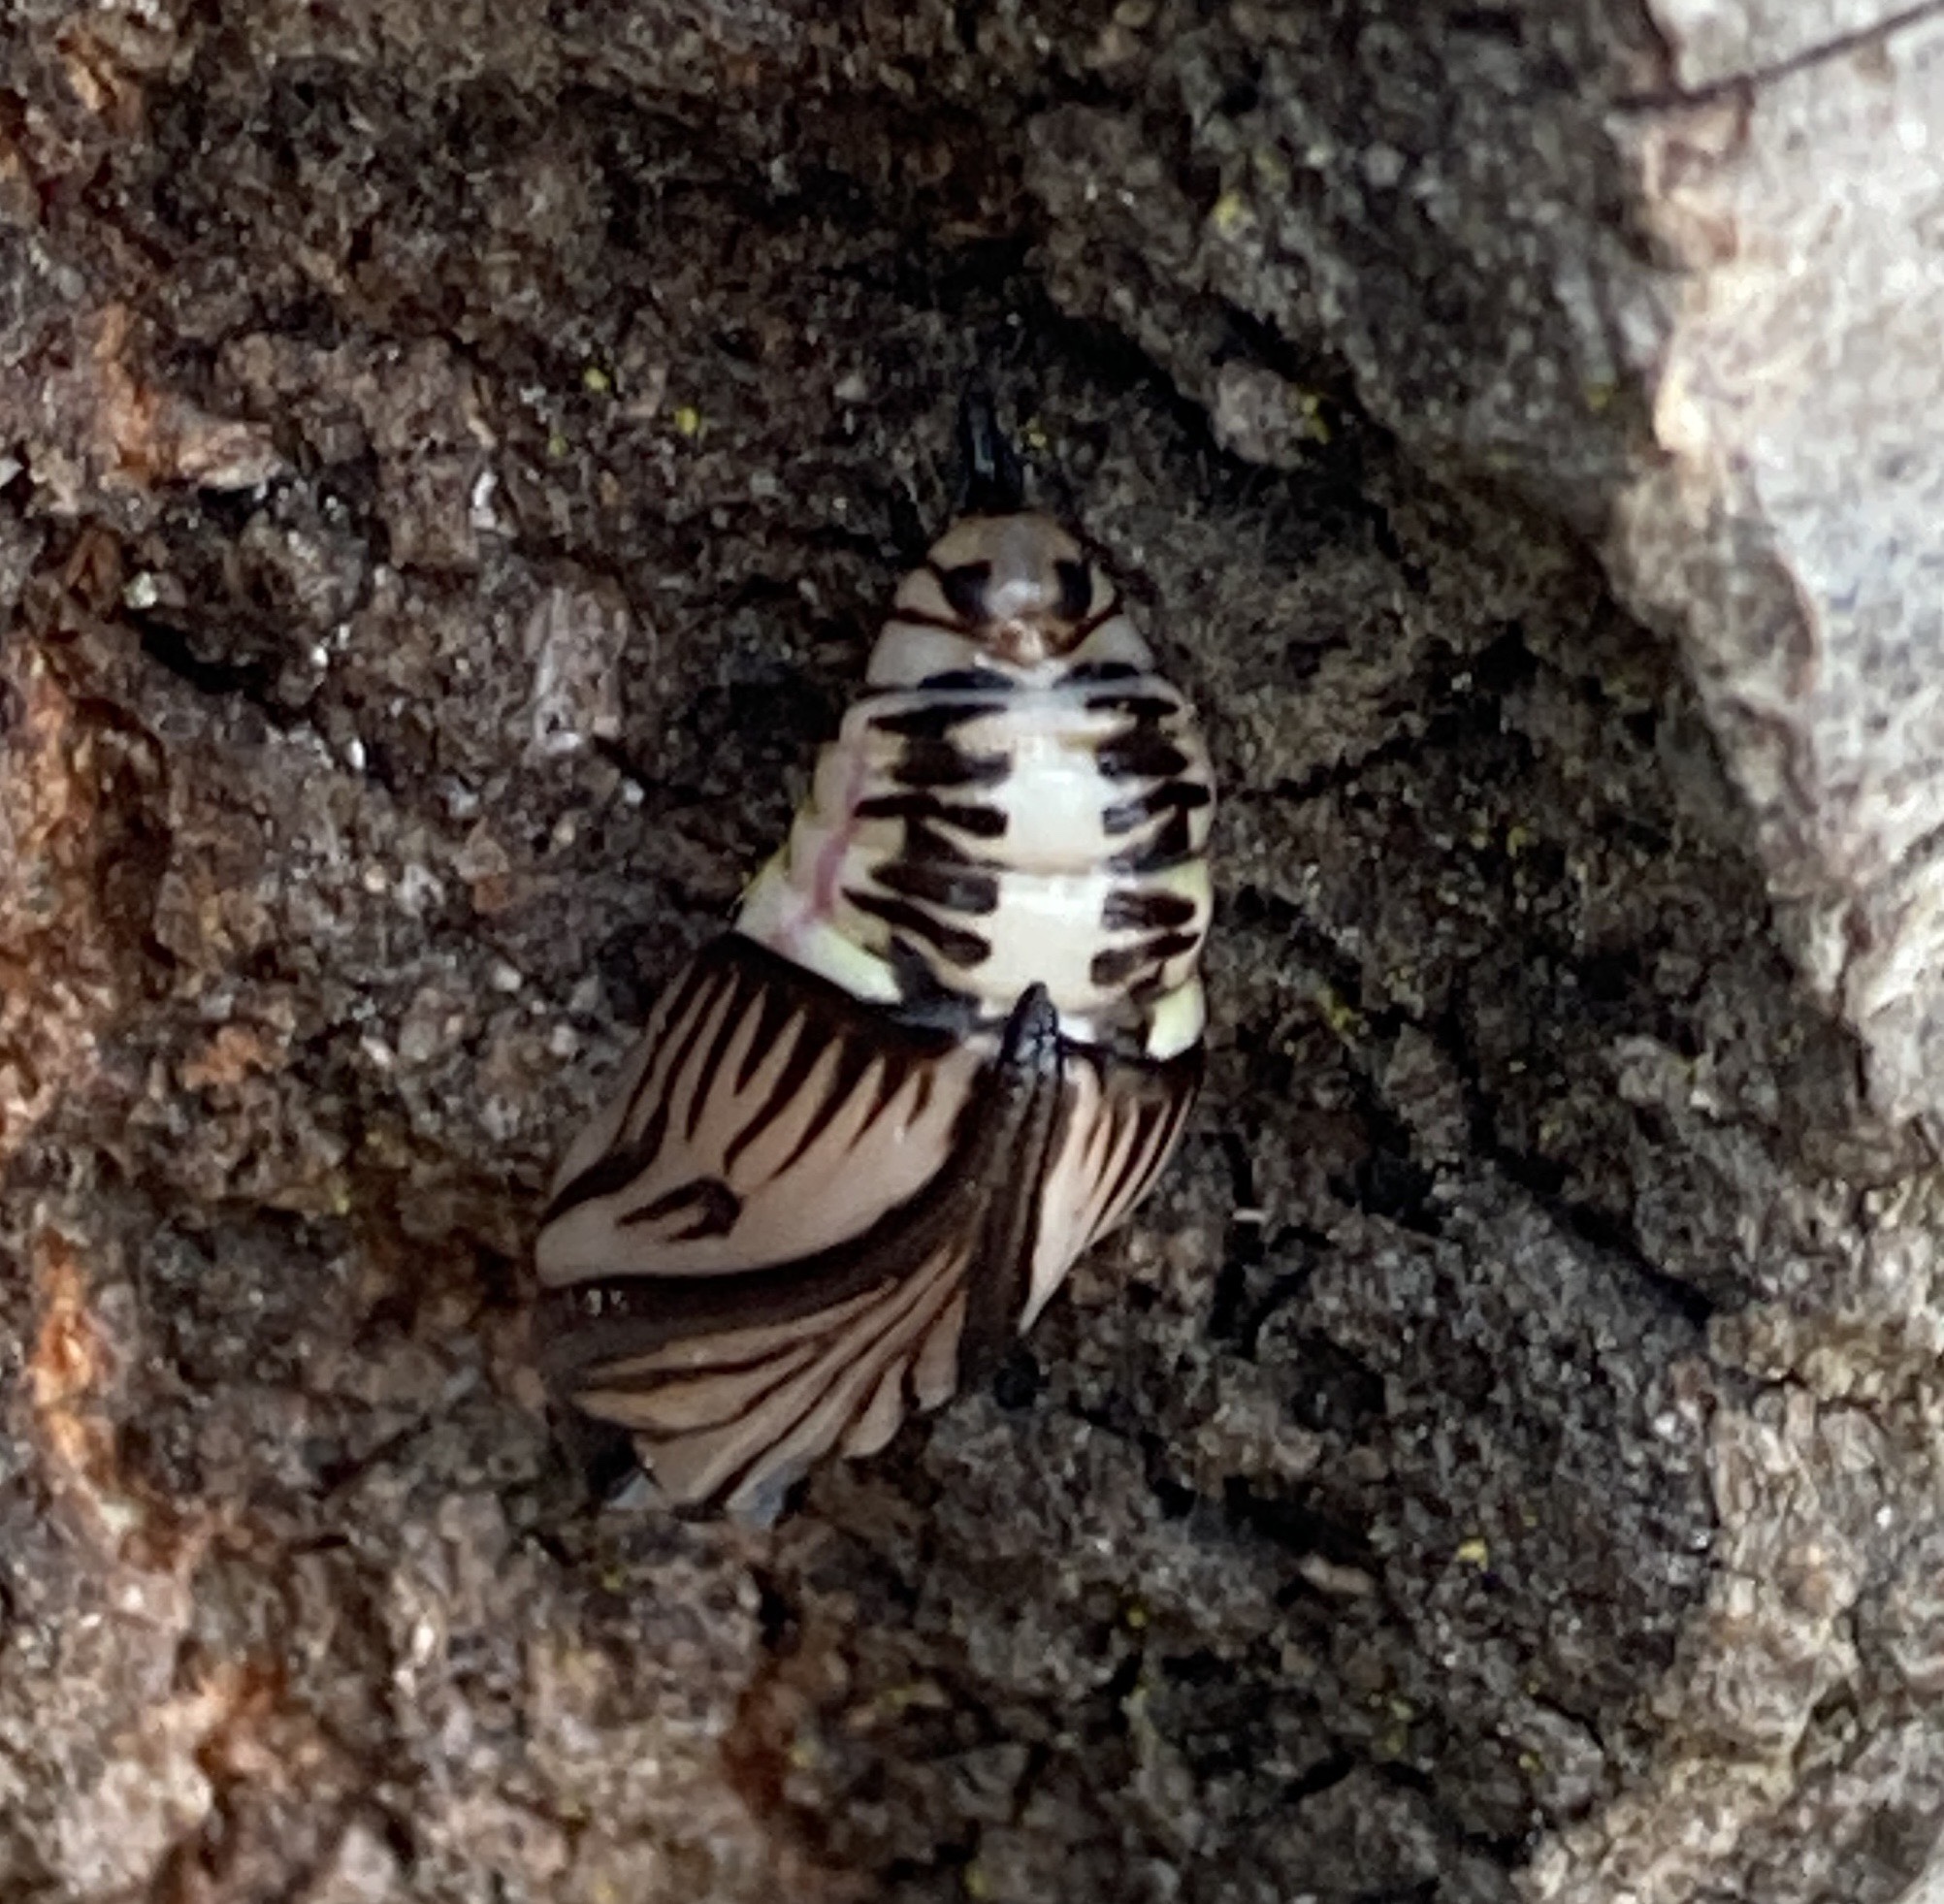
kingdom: Animalia
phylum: Arthropoda
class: Insecta
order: Lepidoptera
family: Notodontidae
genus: Phryganidia
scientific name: Phryganidia californica
